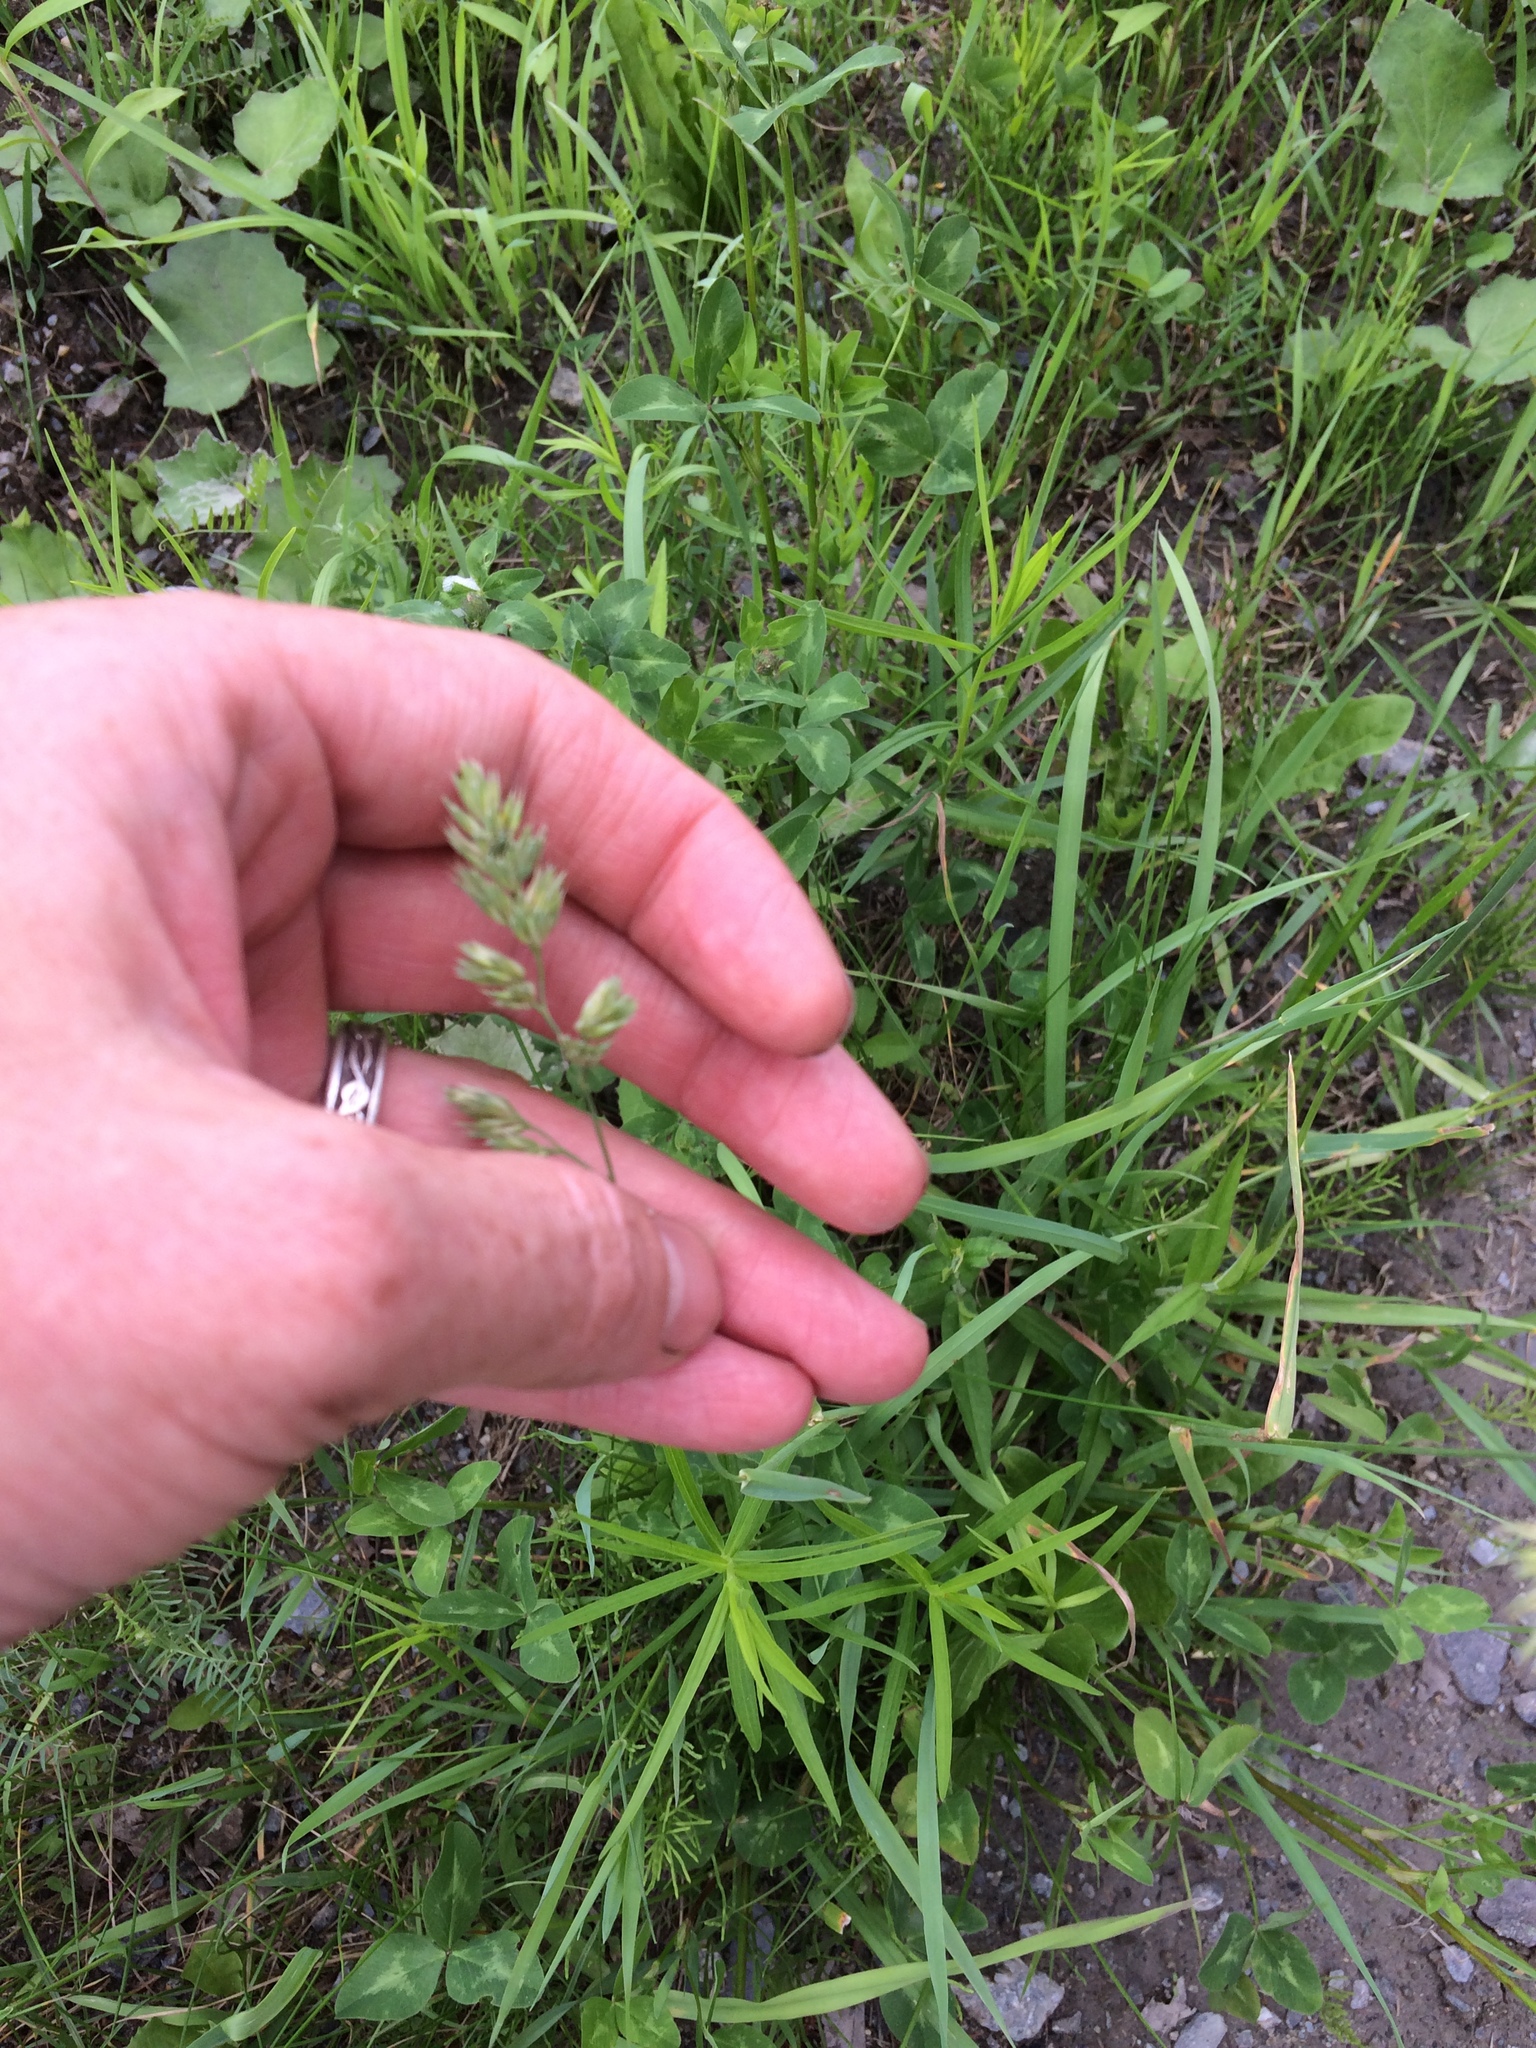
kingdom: Plantae
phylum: Tracheophyta
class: Liliopsida
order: Poales
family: Poaceae
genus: Dactylis
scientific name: Dactylis glomerata
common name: Orchardgrass
